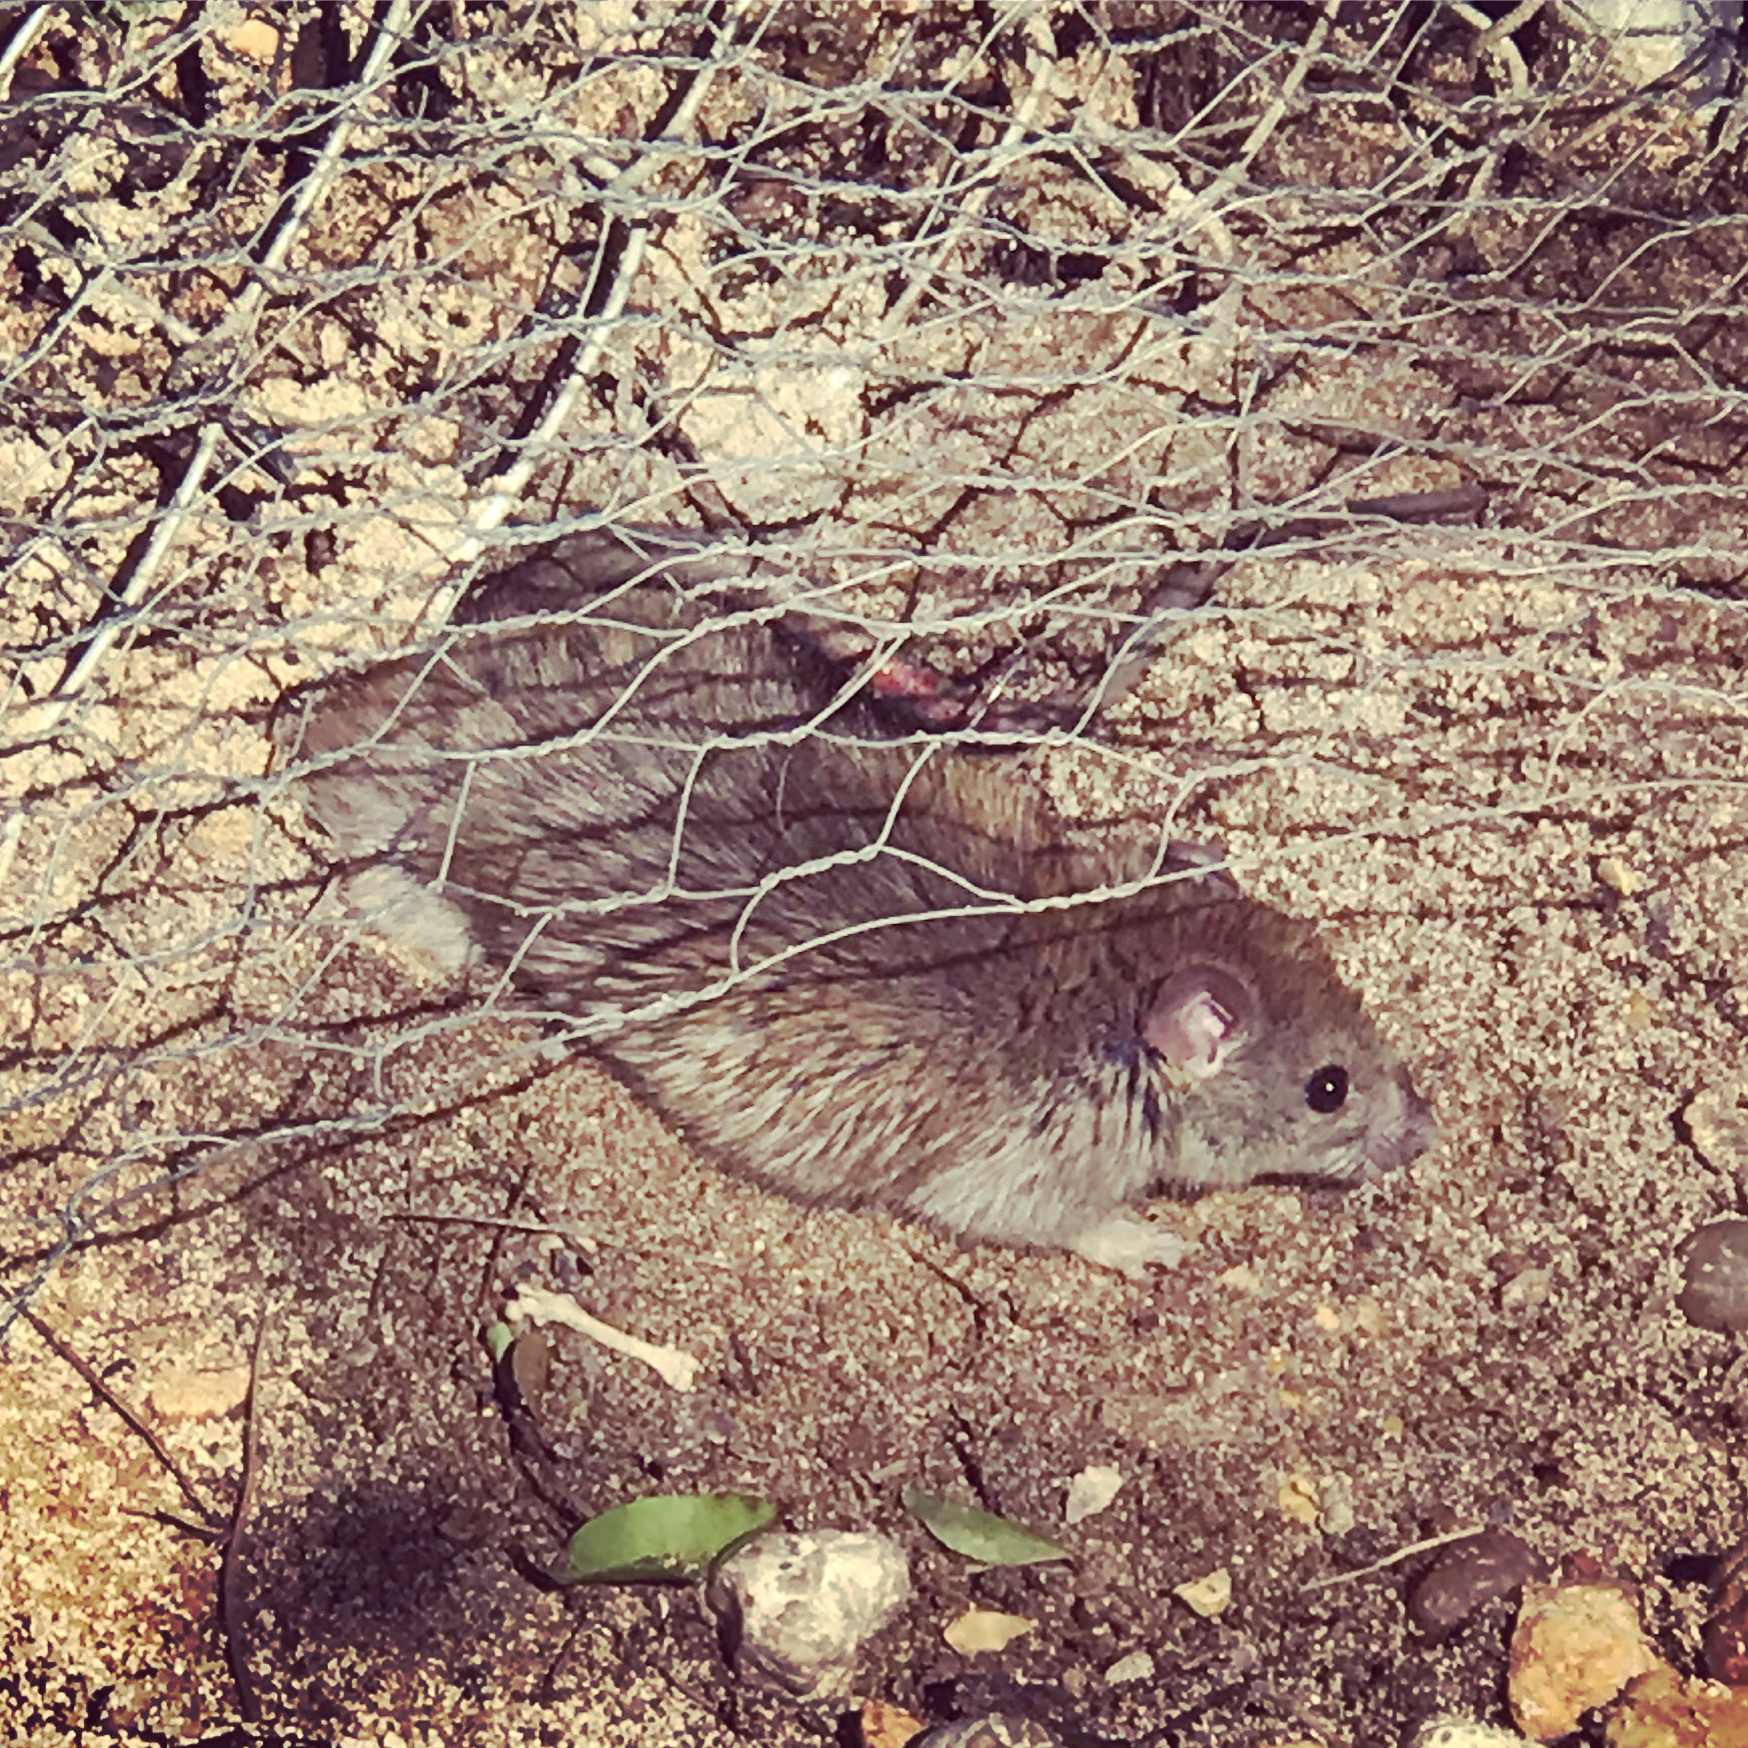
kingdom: Animalia
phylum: Chordata
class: Mammalia
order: Rodentia
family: Muridae
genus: Rattus
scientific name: Rattus norvegicus
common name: Brown rat
